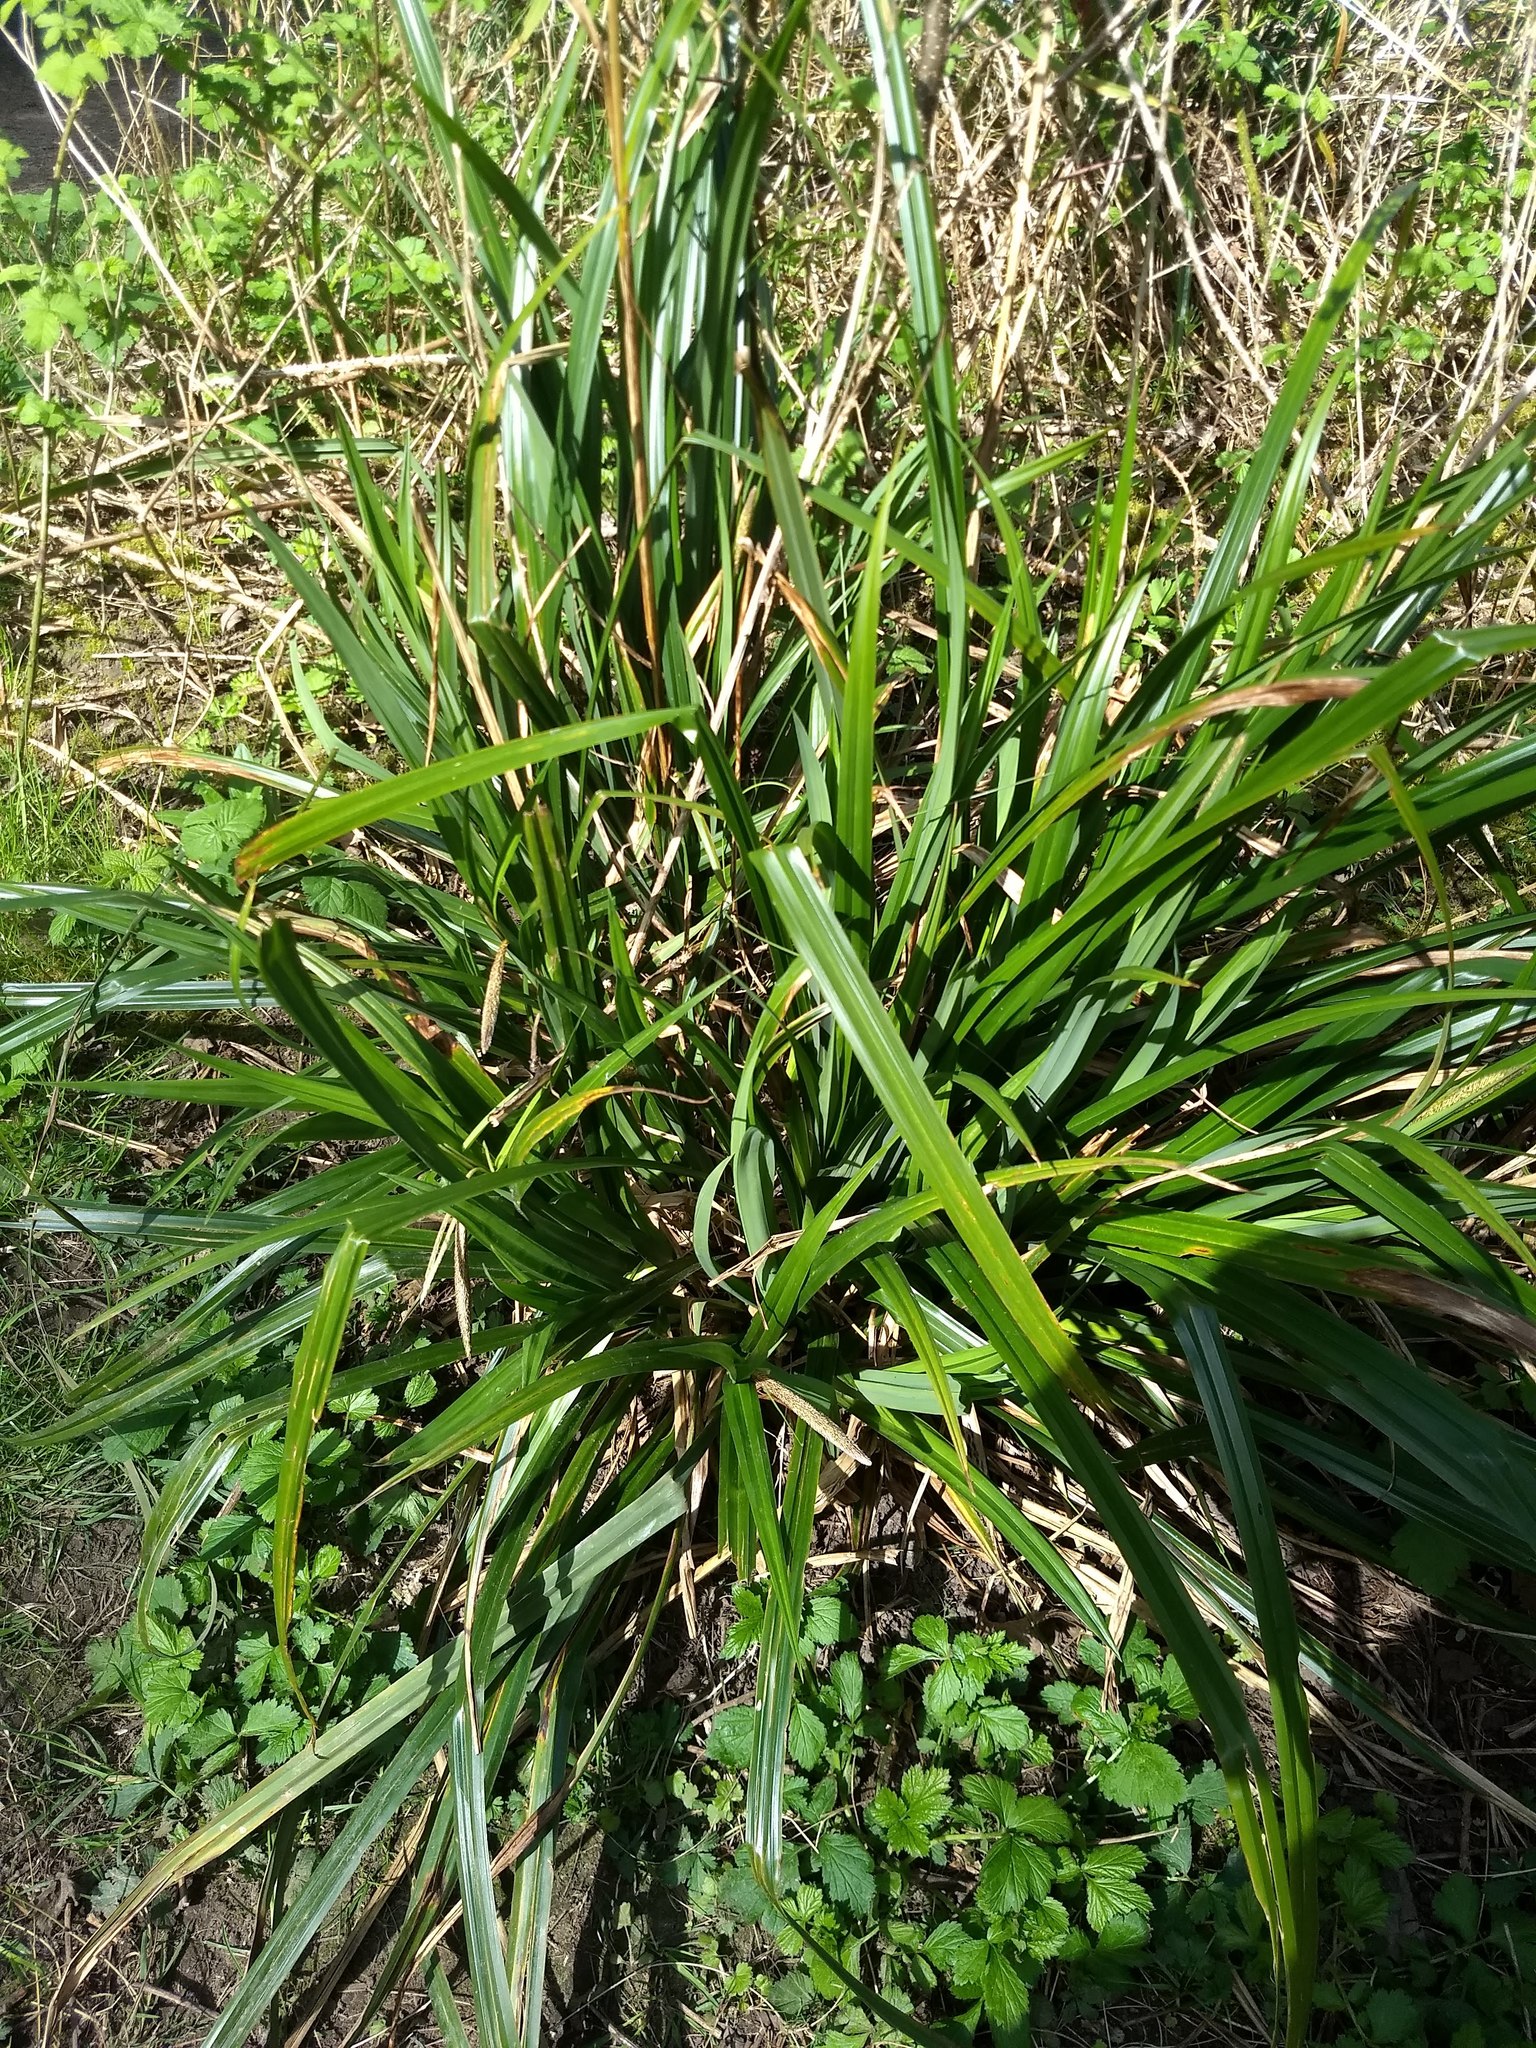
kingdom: Plantae
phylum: Tracheophyta
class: Liliopsida
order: Poales
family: Cyperaceae
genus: Carex
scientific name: Carex pendula
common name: Pendulous sedge
